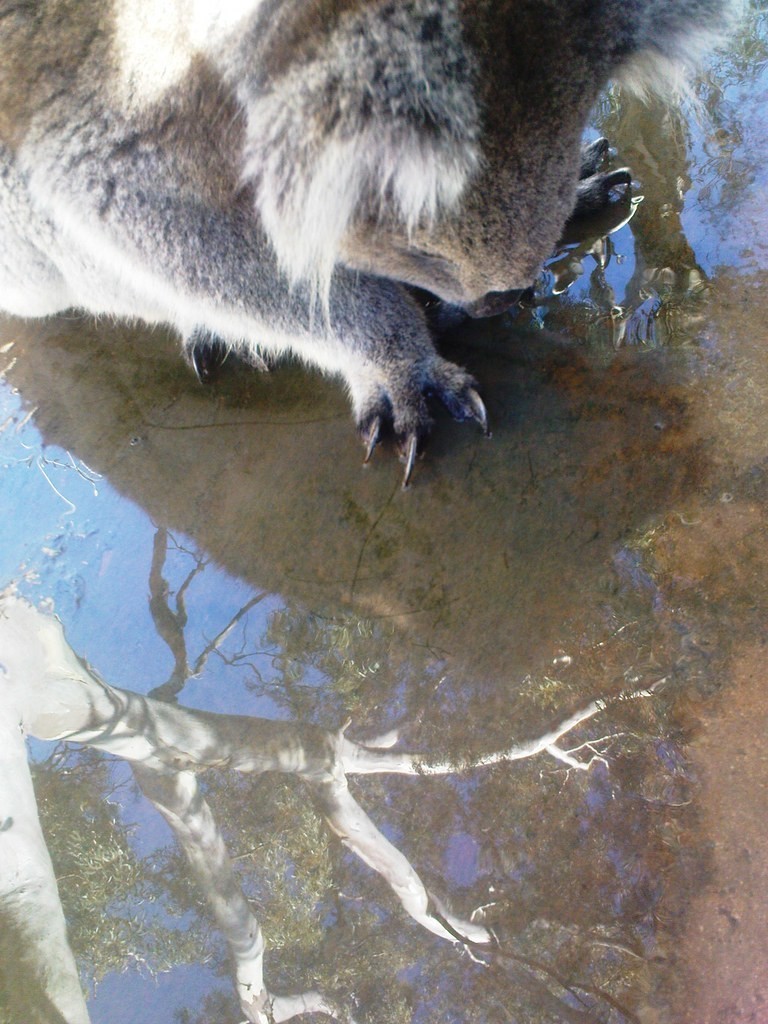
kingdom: Animalia
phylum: Chordata
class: Mammalia
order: Diprotodontia
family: Phascolarctidae
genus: Phascolarctos
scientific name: Phascolarctos cinereus
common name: Koala
